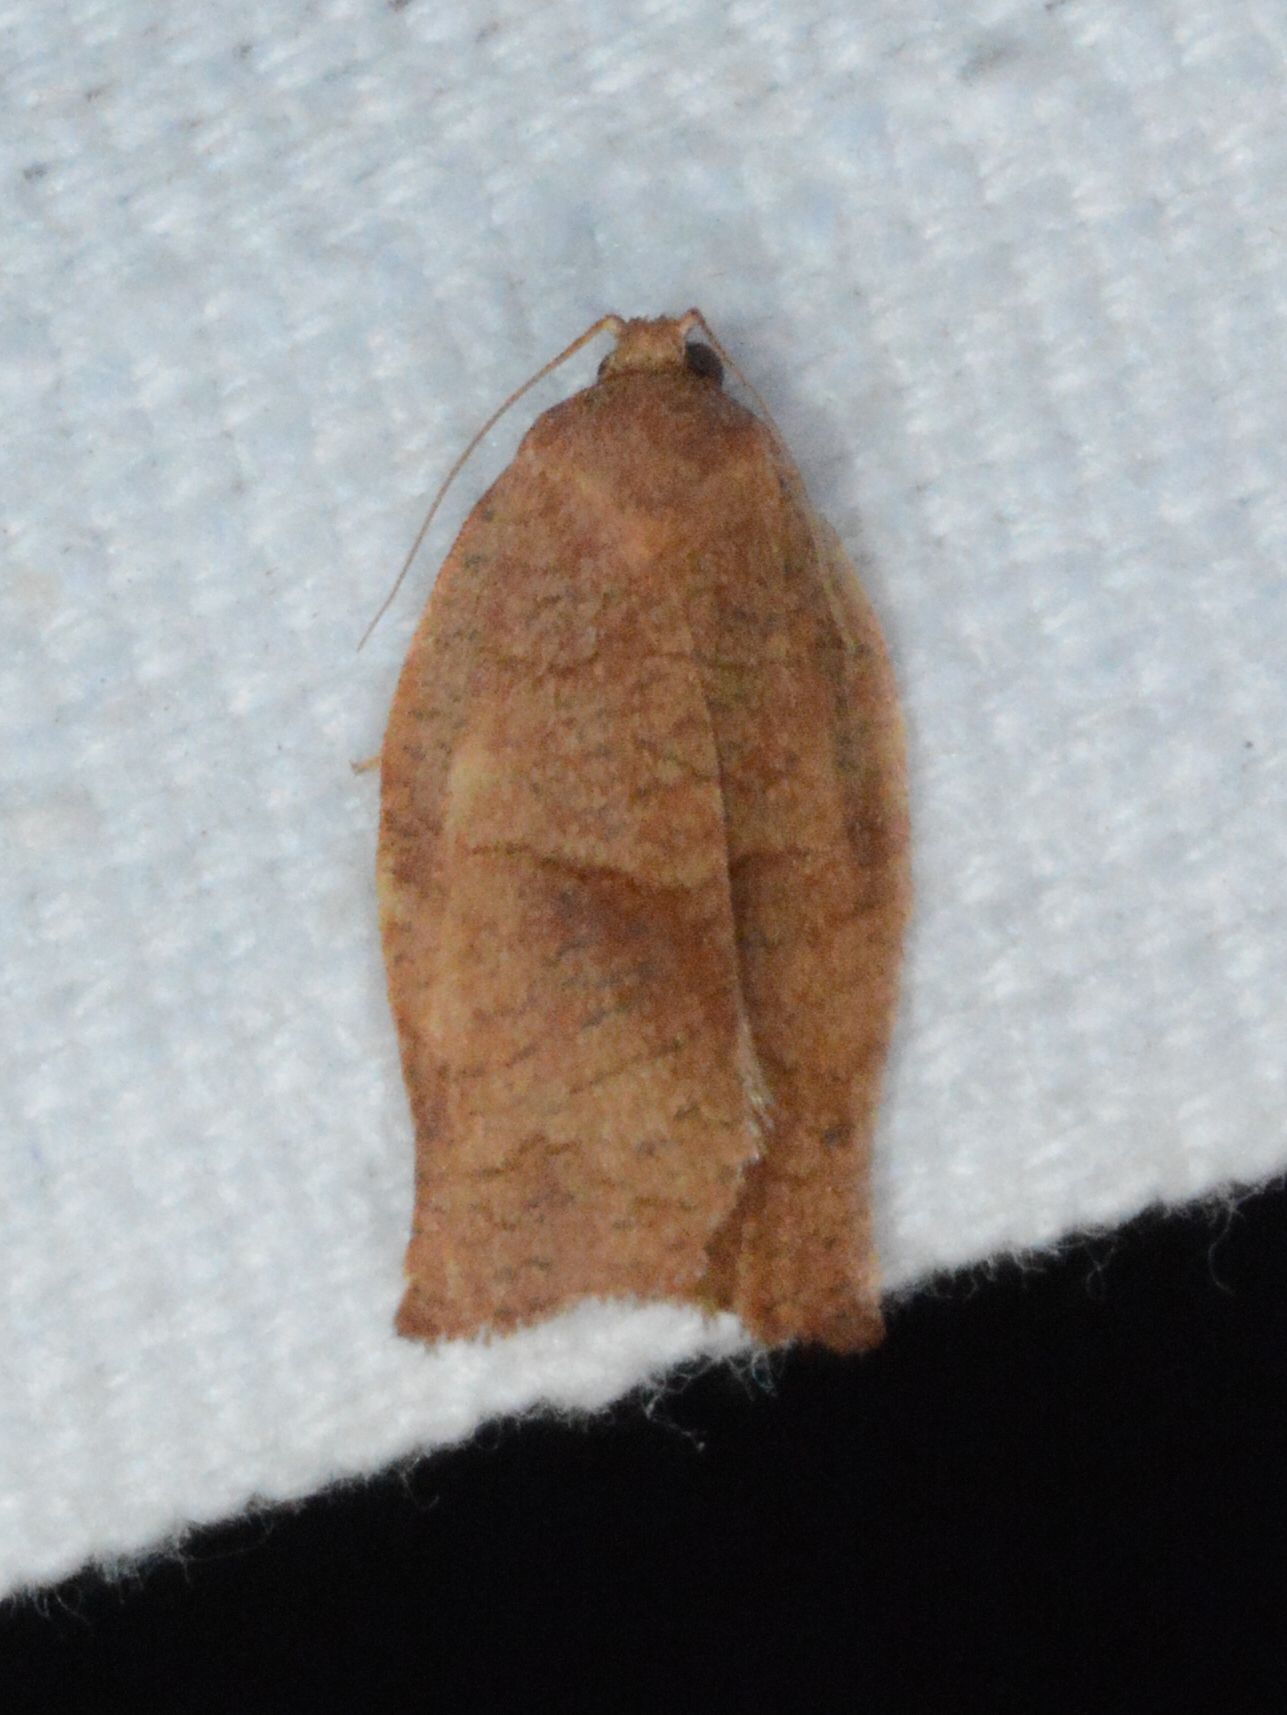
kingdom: Animalia
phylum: Arthropoda
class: Insecta
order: Lepidoptera
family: Tortricidae
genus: Choristoneura
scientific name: Choristoneura rosaceana
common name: Oblique-banded leafroller moth
